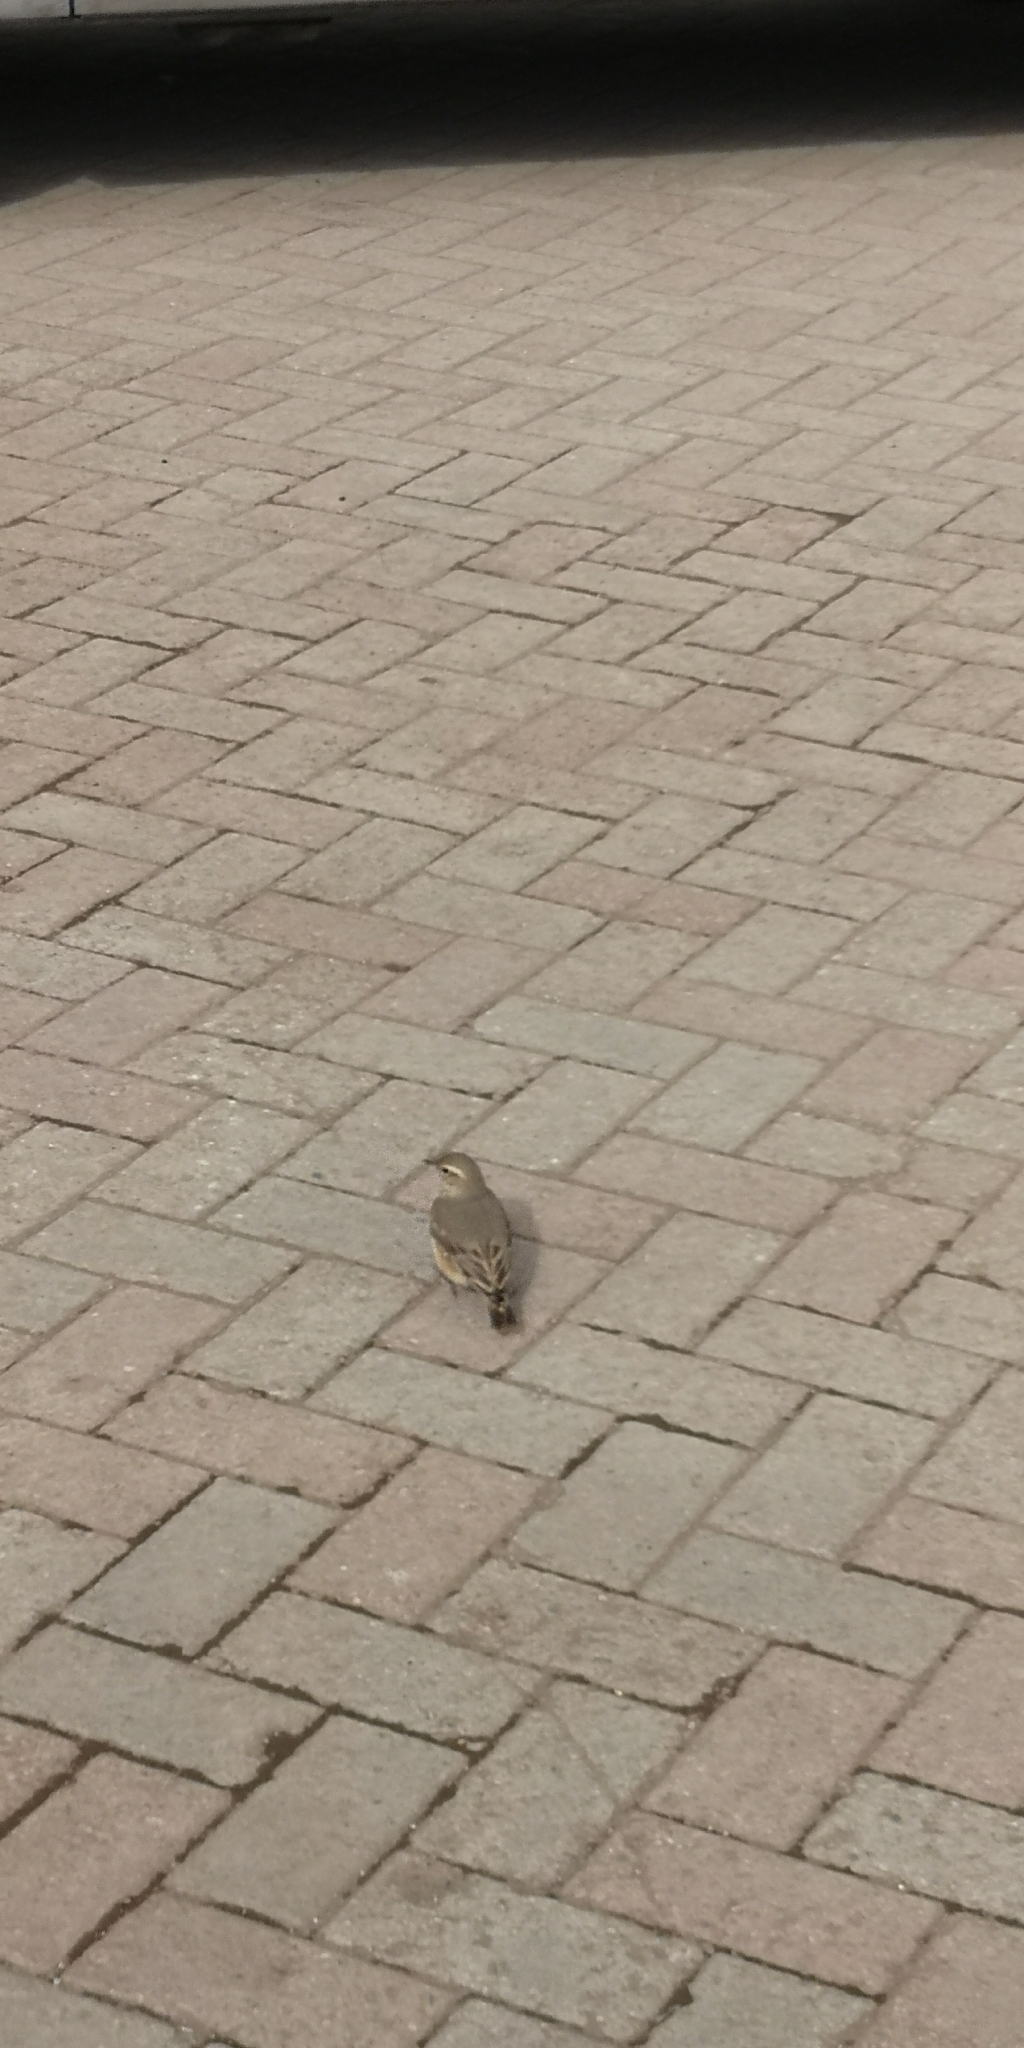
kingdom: Animalia
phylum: Chordata
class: Aves
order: Passeriformes
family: Furnariidae
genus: Geositta
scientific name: Geositta rufipennis
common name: Rufous-banded miner
